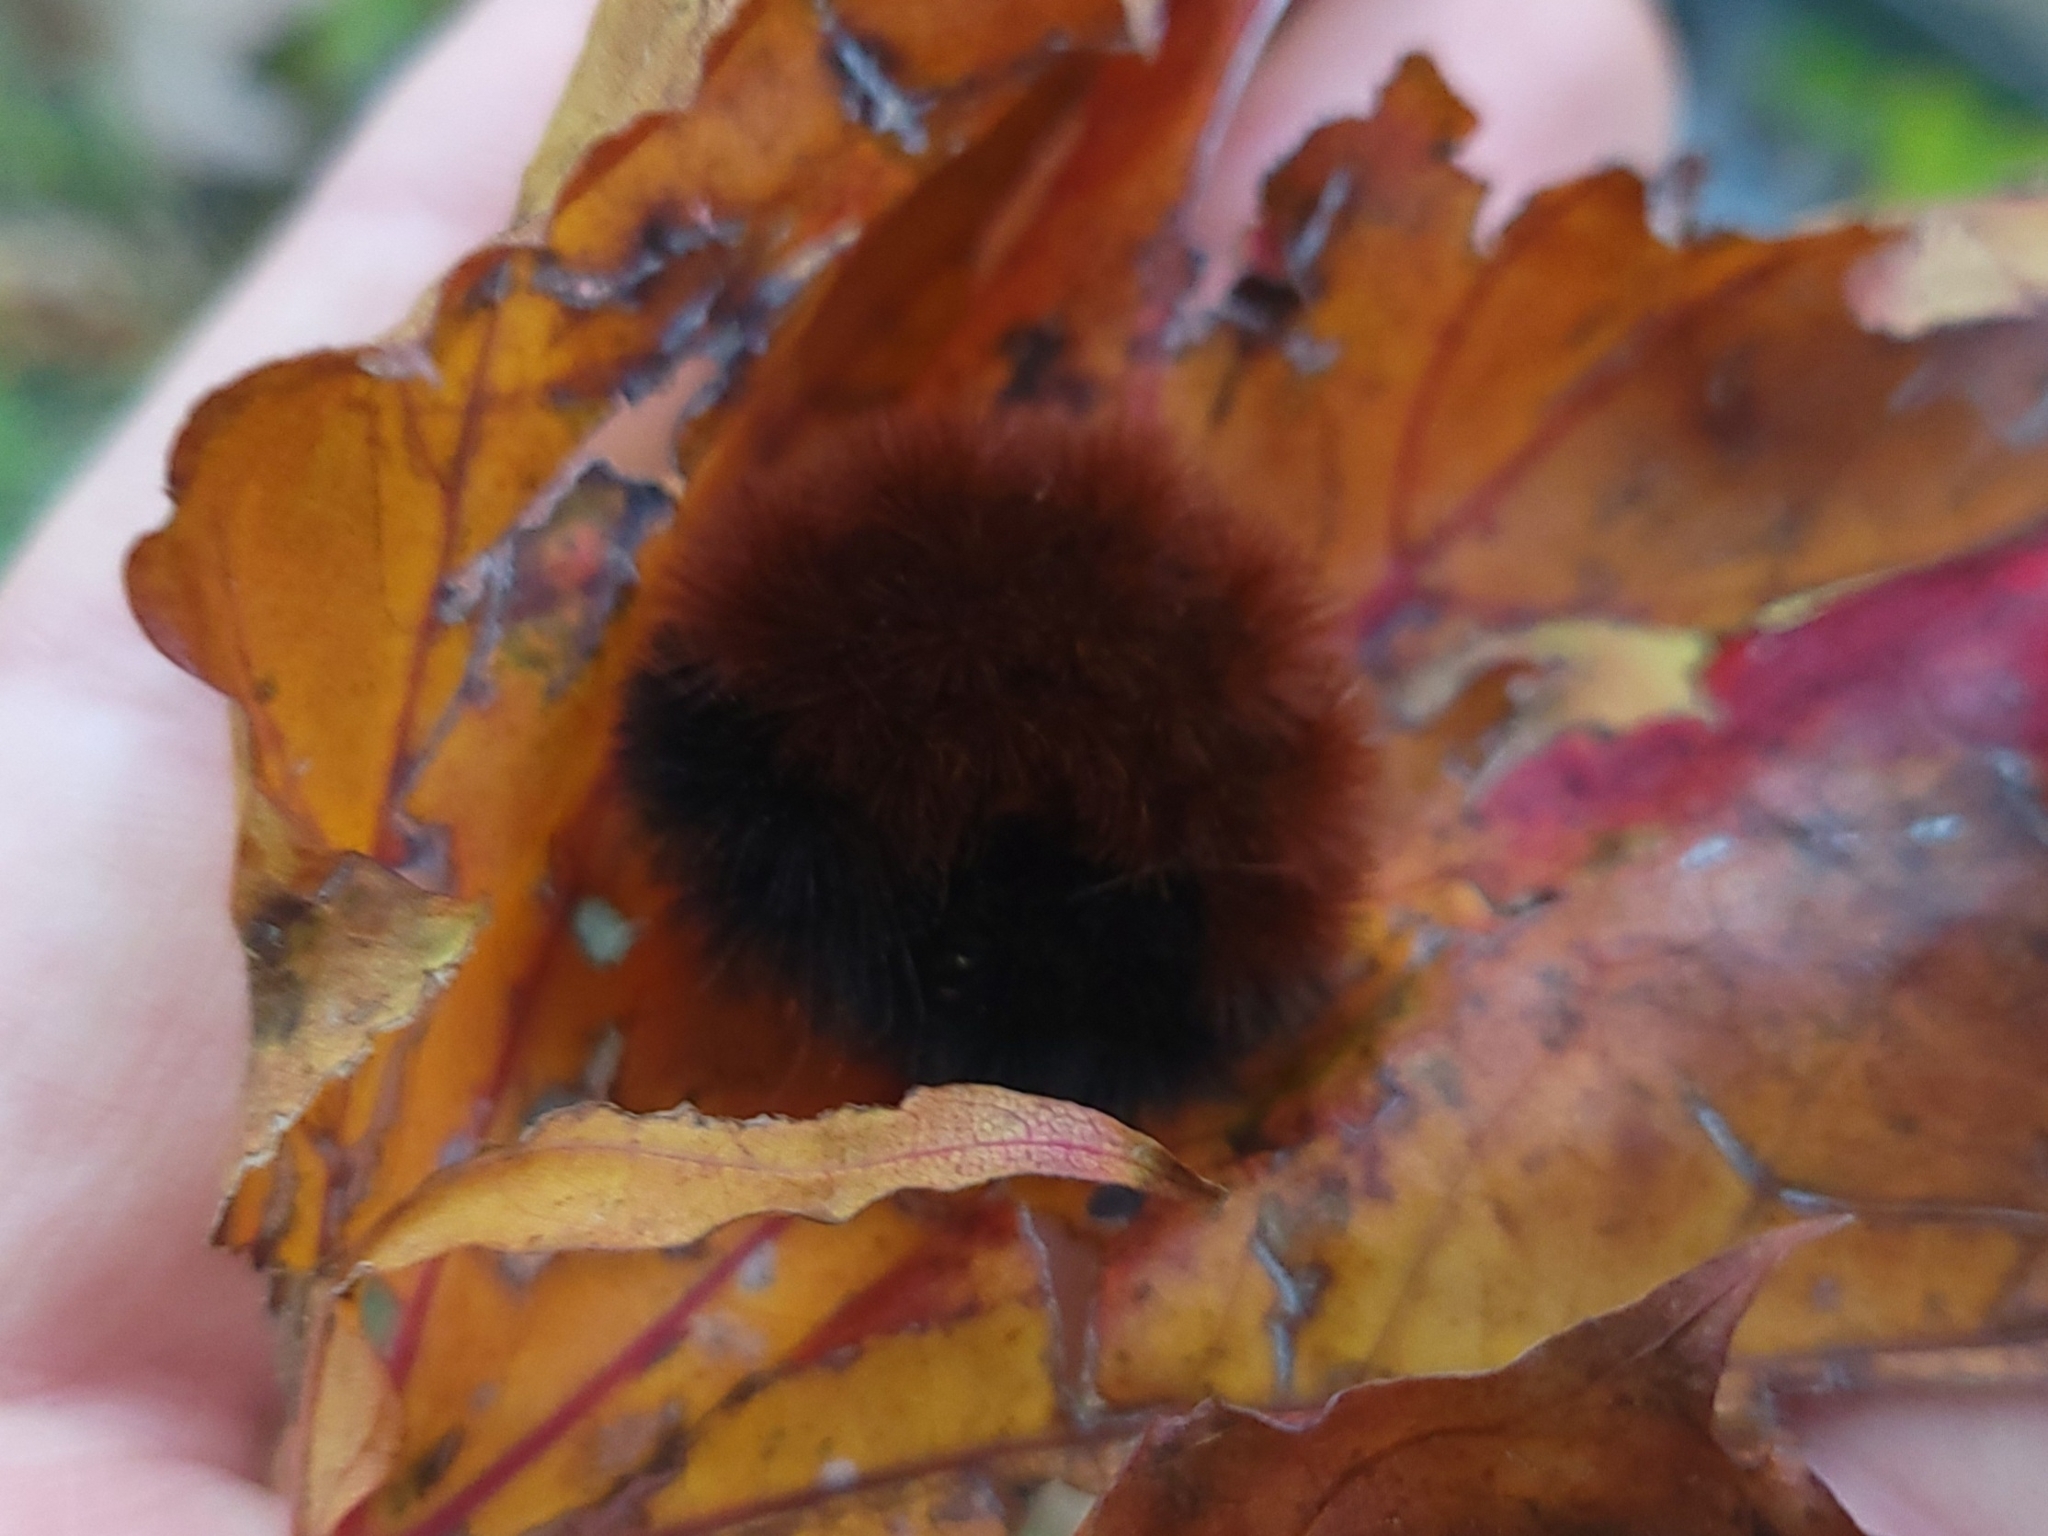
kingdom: Animalia
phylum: Arthropoda
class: Insecta
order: Lepidoptera
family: Erebidae
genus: Pyrrharctia
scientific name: Pyrrharctia isabella
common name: Isabella tiger moth
